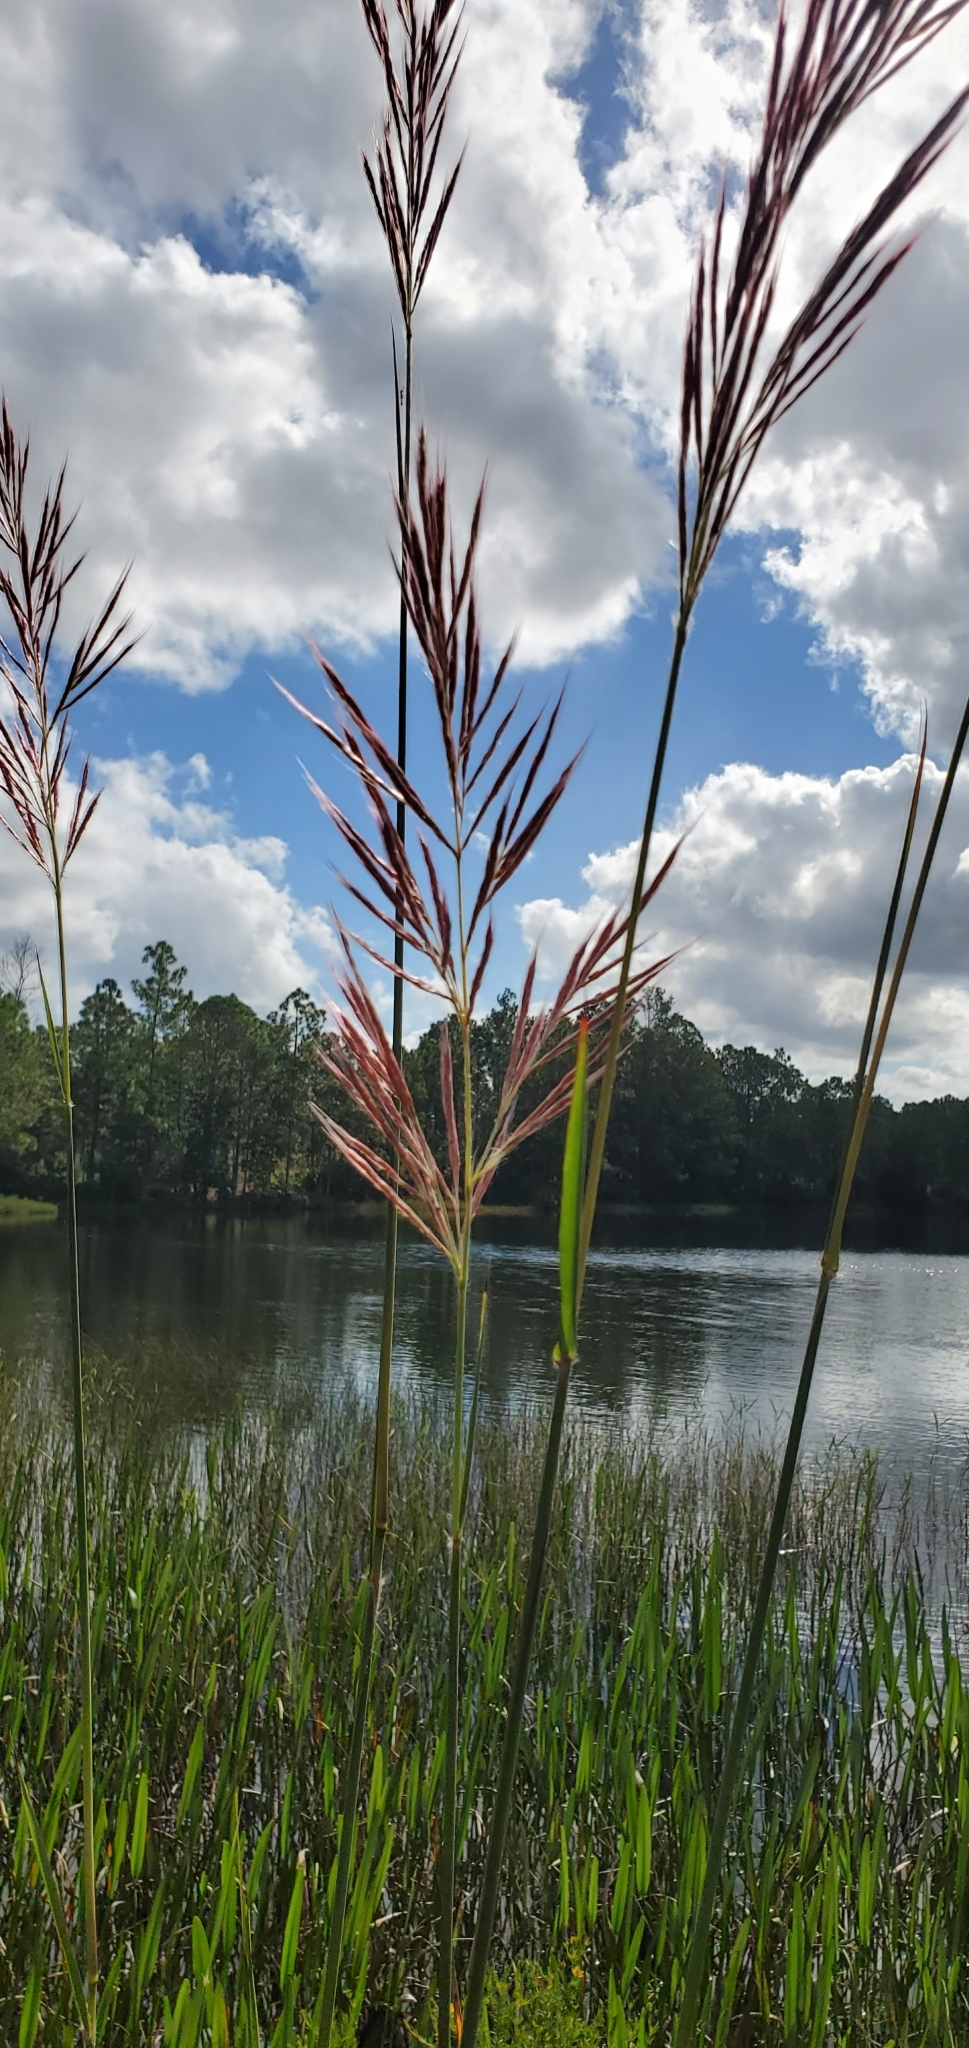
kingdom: Plantae
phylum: Tracheophyta
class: Liliopsida
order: Poales
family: Poaceae
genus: Erianthus
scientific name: Erianthus giganteus
